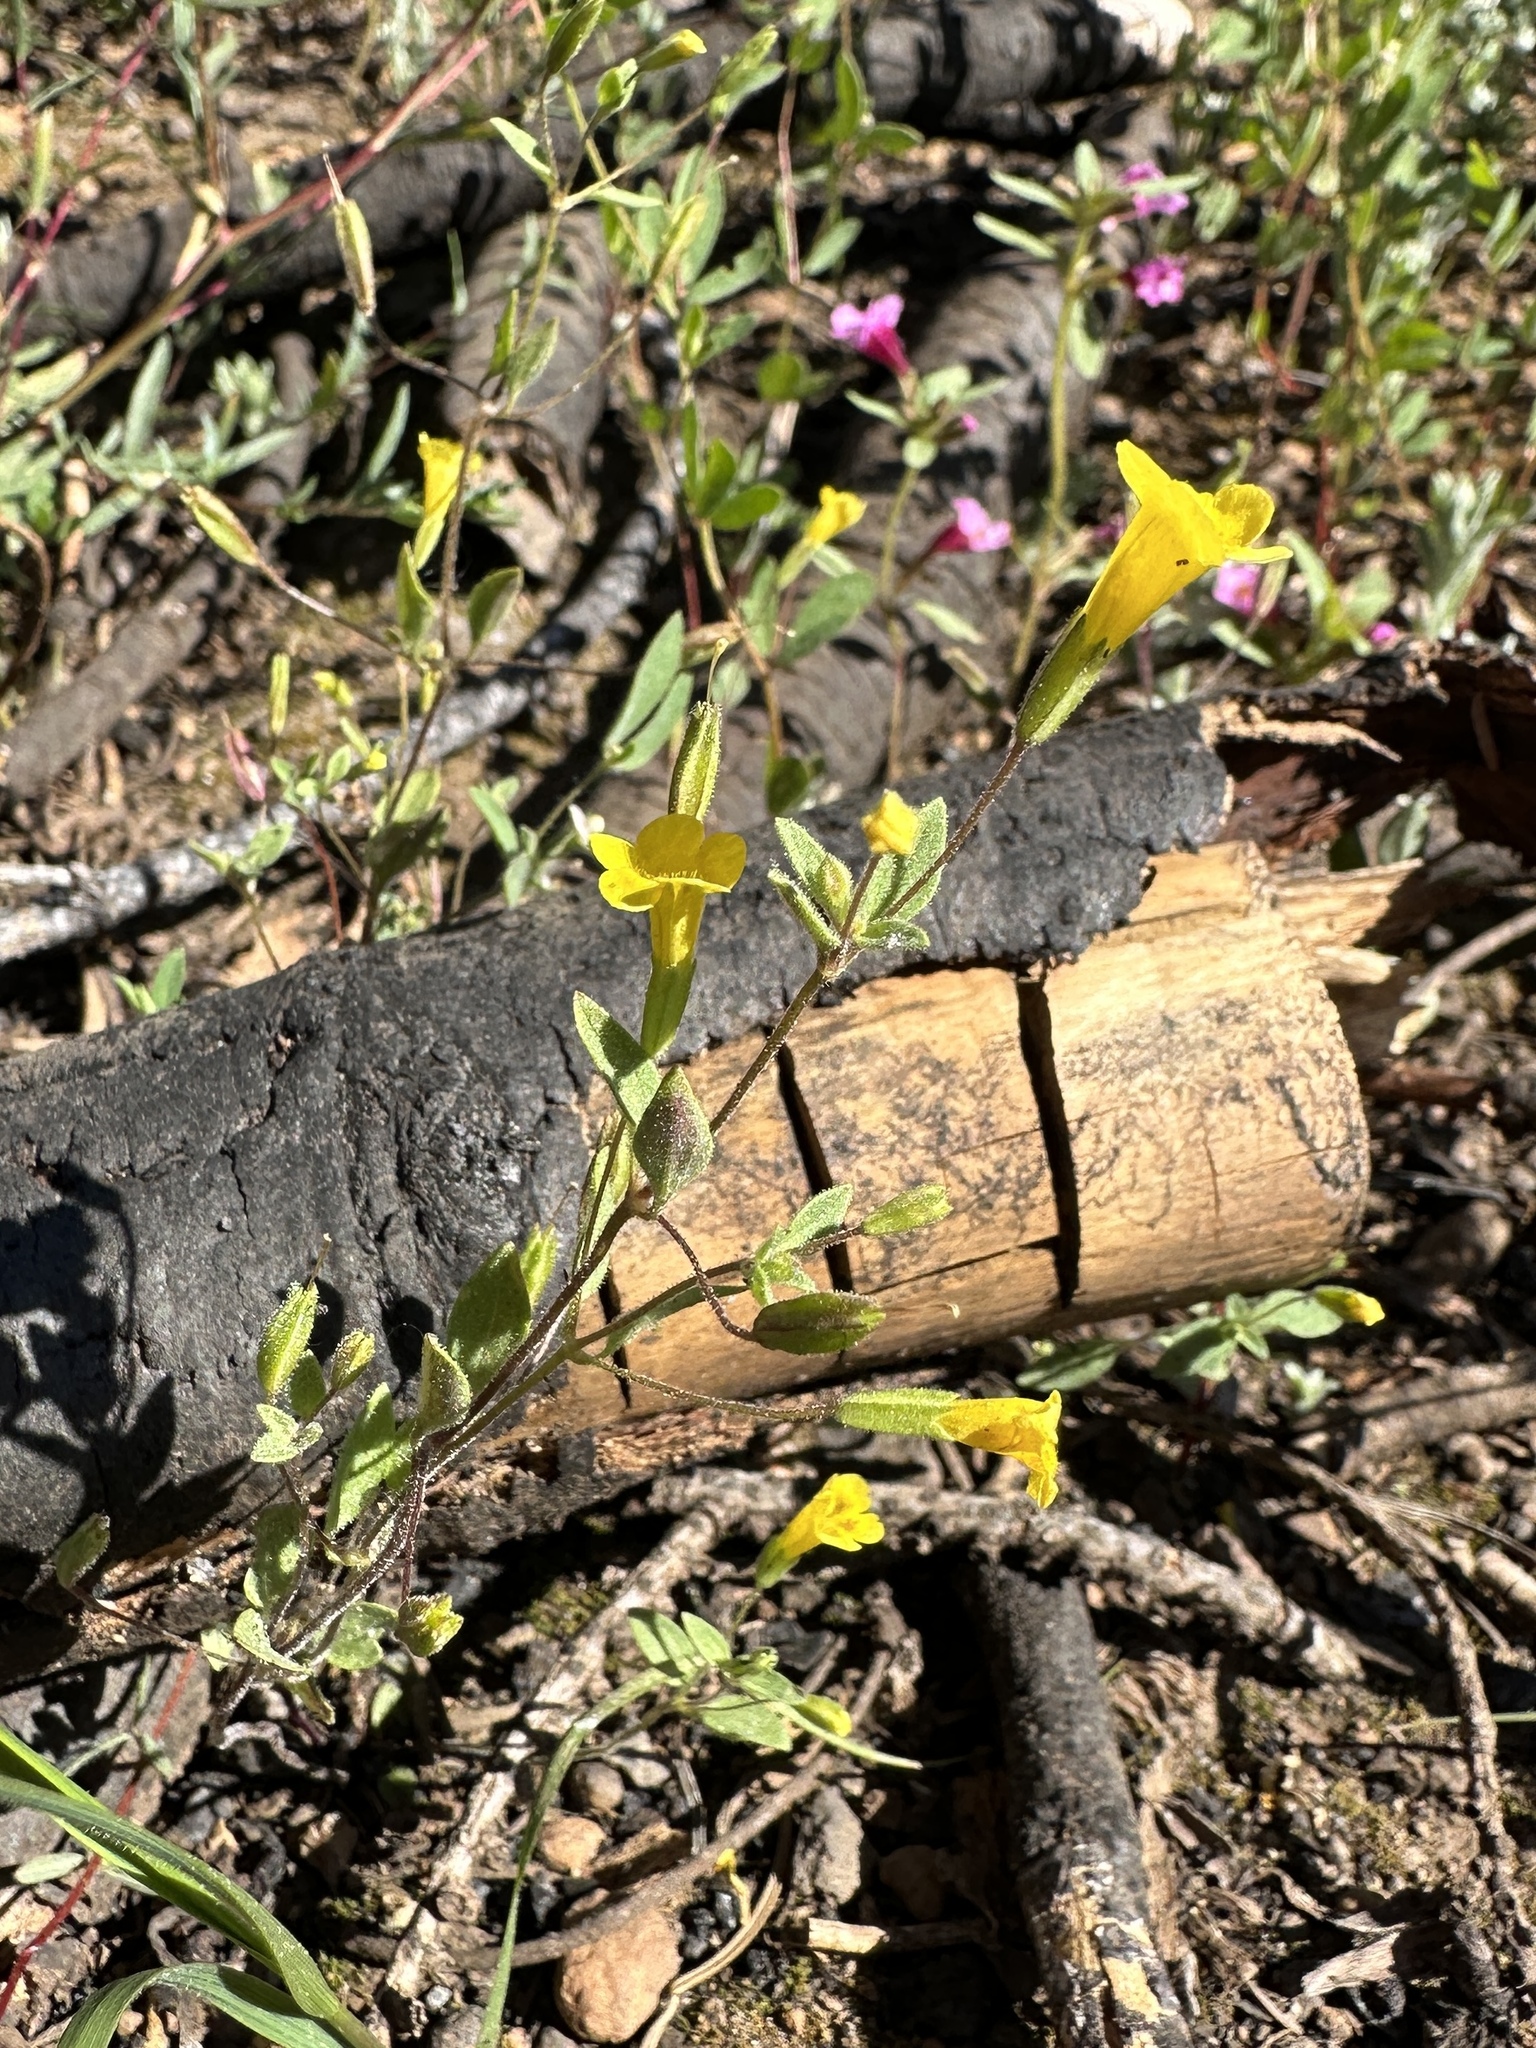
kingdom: Plantae
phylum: Tracheophyta
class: Magnoliopsida
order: Lamiales
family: Phrymaceae
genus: Erythranthe
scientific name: Erythranthe pulsiferae
